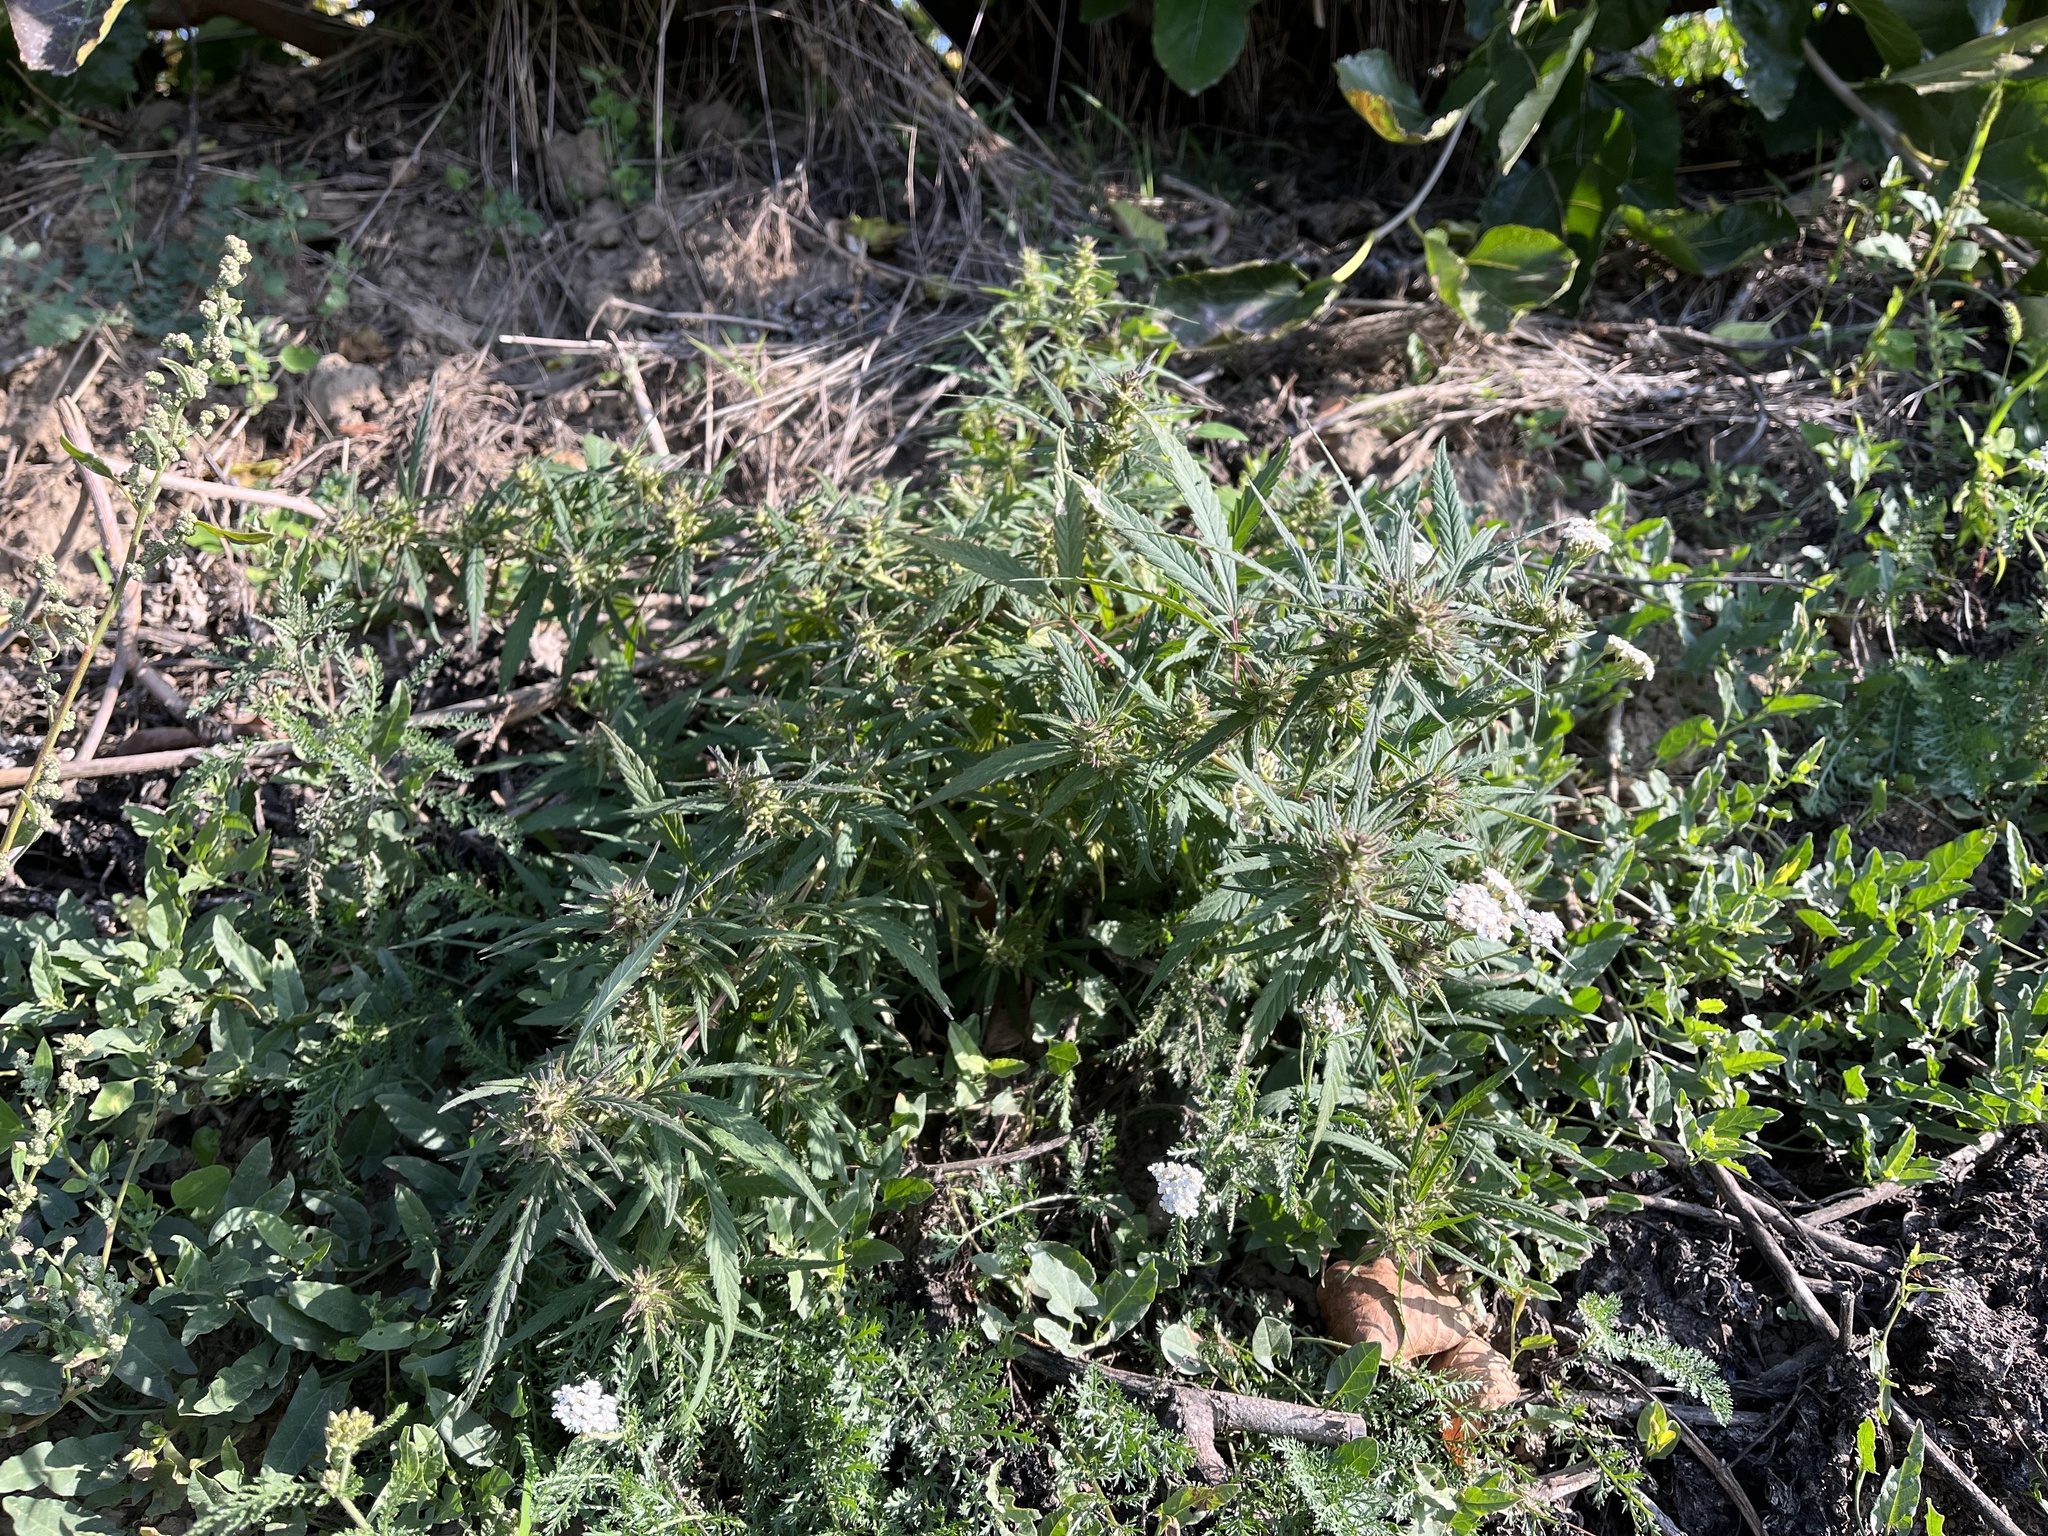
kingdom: Plantae
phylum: Tracheophyta
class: Magnoliopsida
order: Rosales
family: Cannabaceae
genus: Cannabis
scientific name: Cannabis sativa
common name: Hemp
